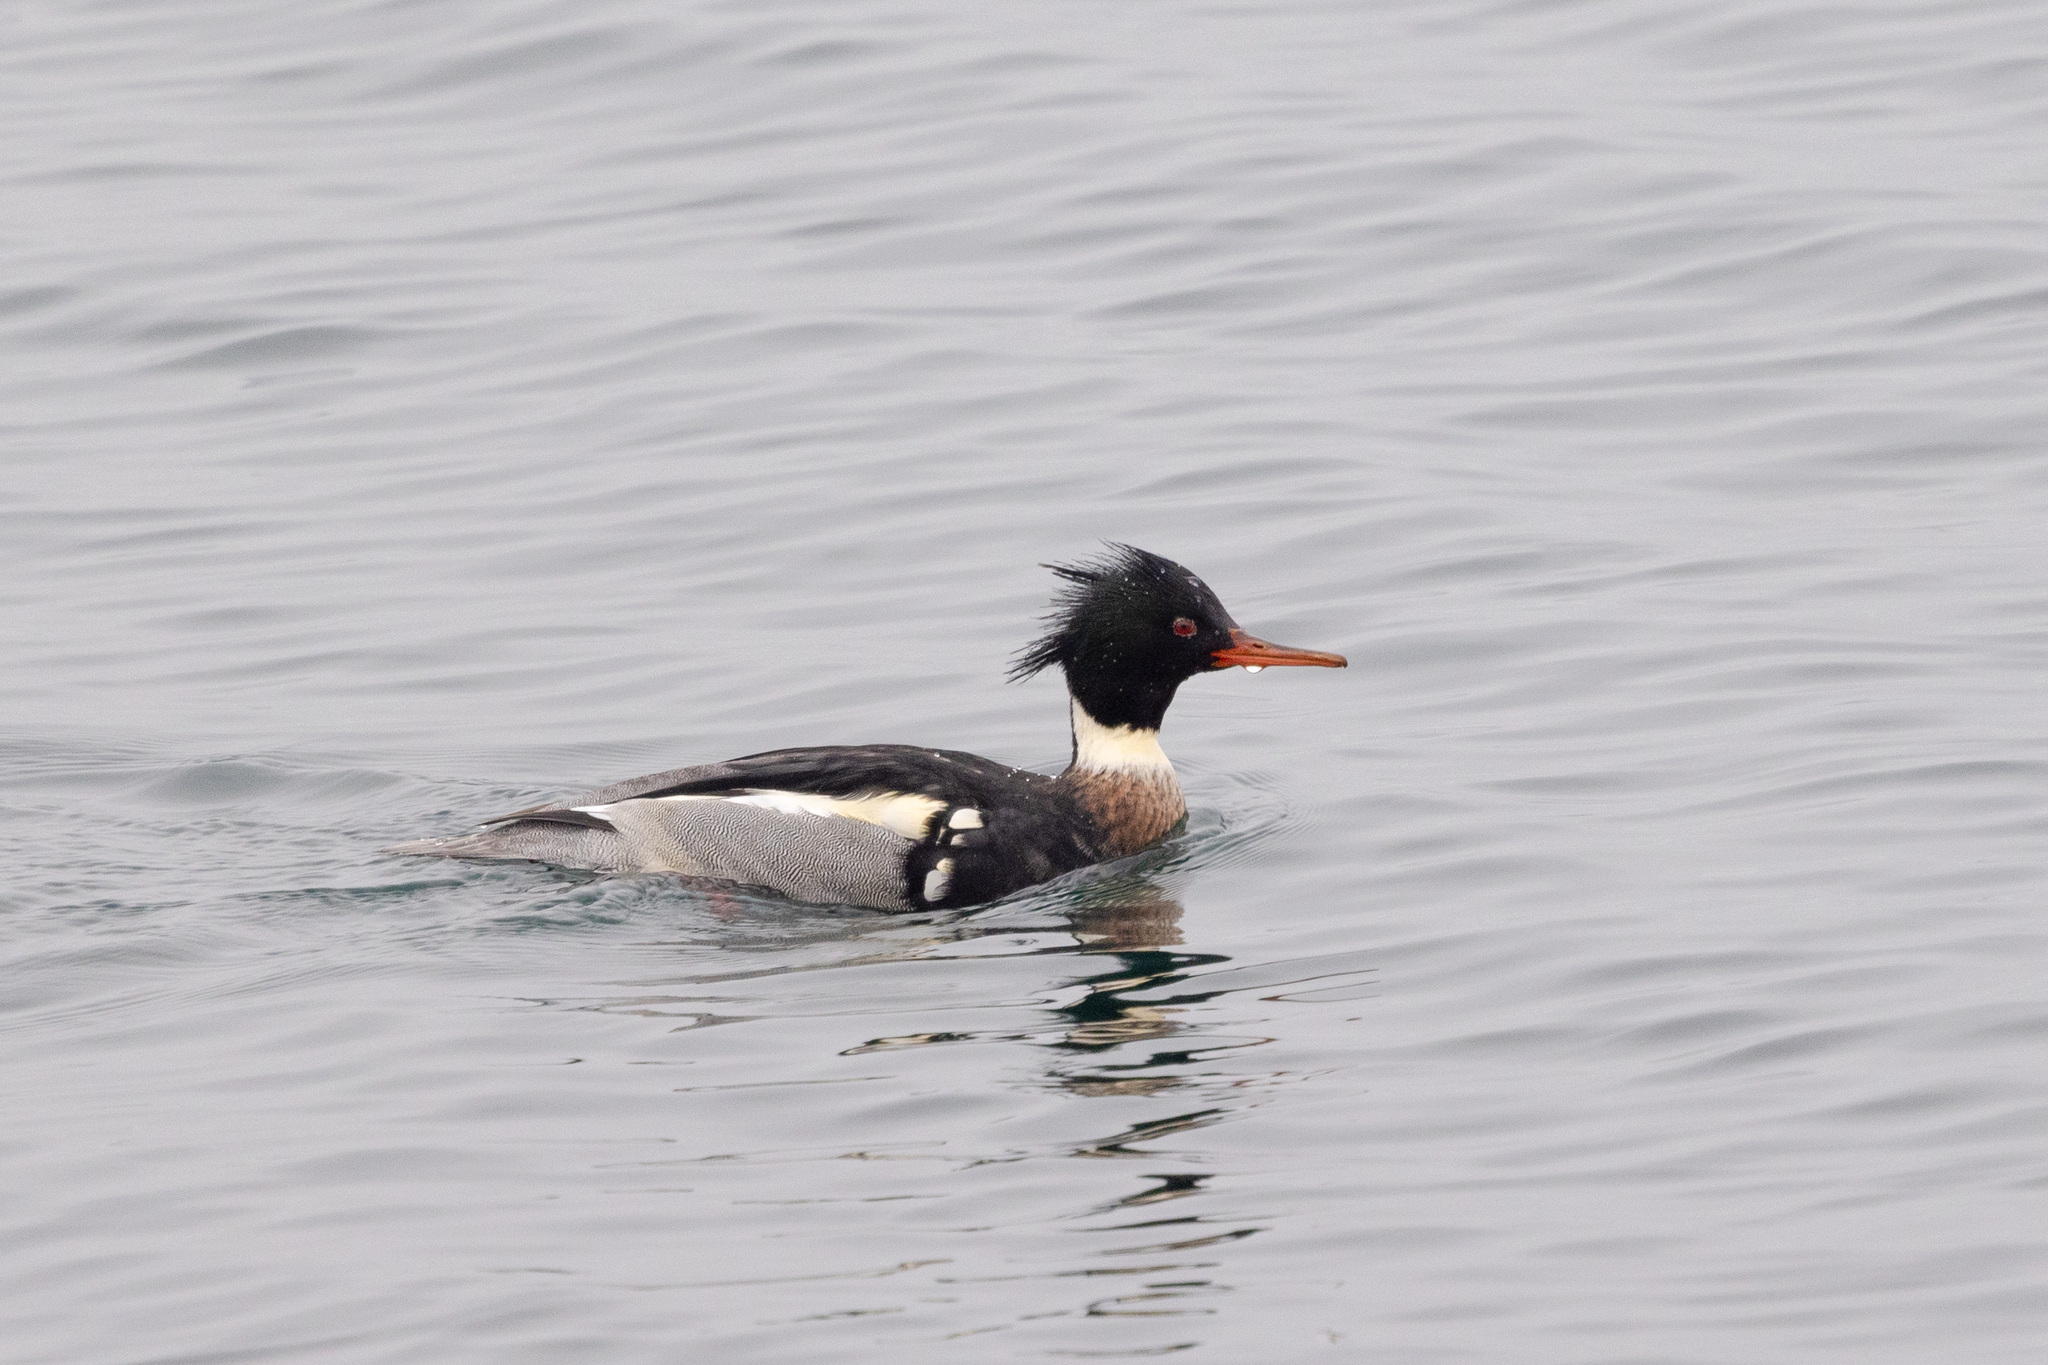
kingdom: Animalia
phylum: Chordata
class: Aves
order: Anseriformes
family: Anatidae
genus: Mergus
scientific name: Mergus serrator
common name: Red-breasted merganser
